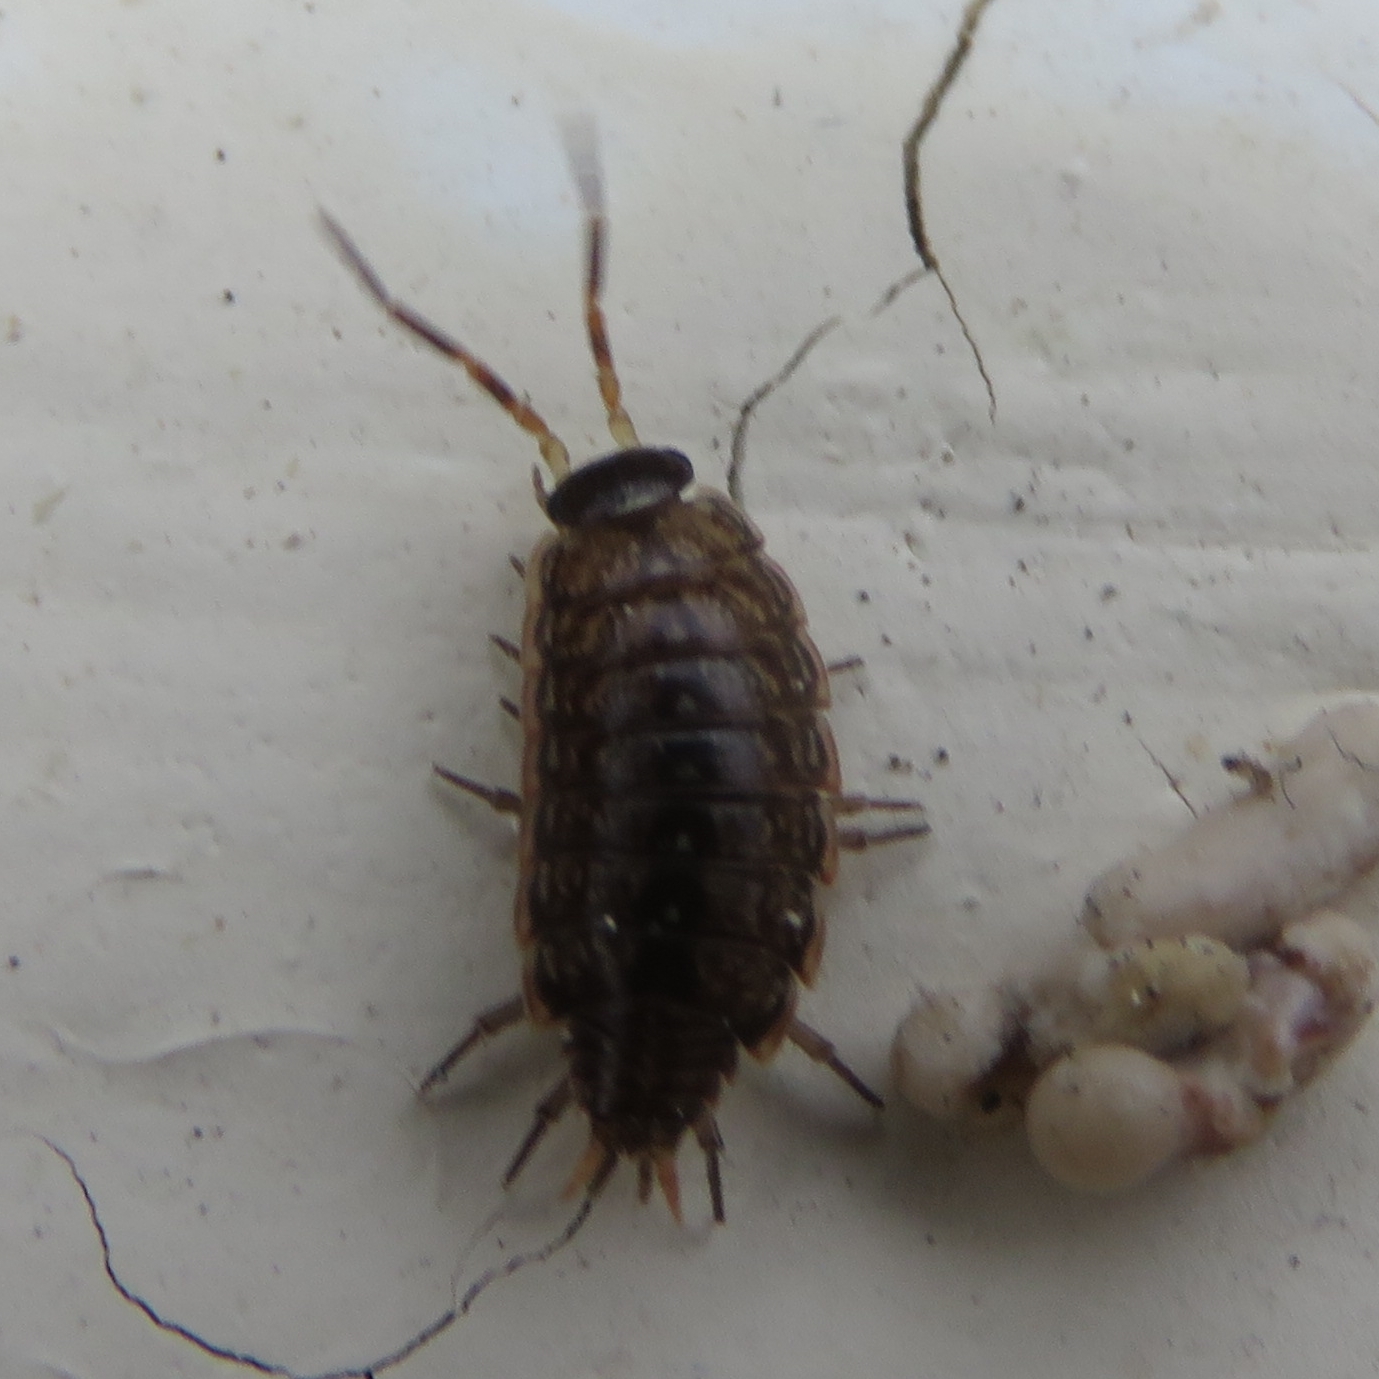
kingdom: Animalia
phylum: Arthropoda
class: Malacostraca
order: Isopoda
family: Philosciidae
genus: Philoscia
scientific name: Philoscia muscorum
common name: Common striped woodlouse
